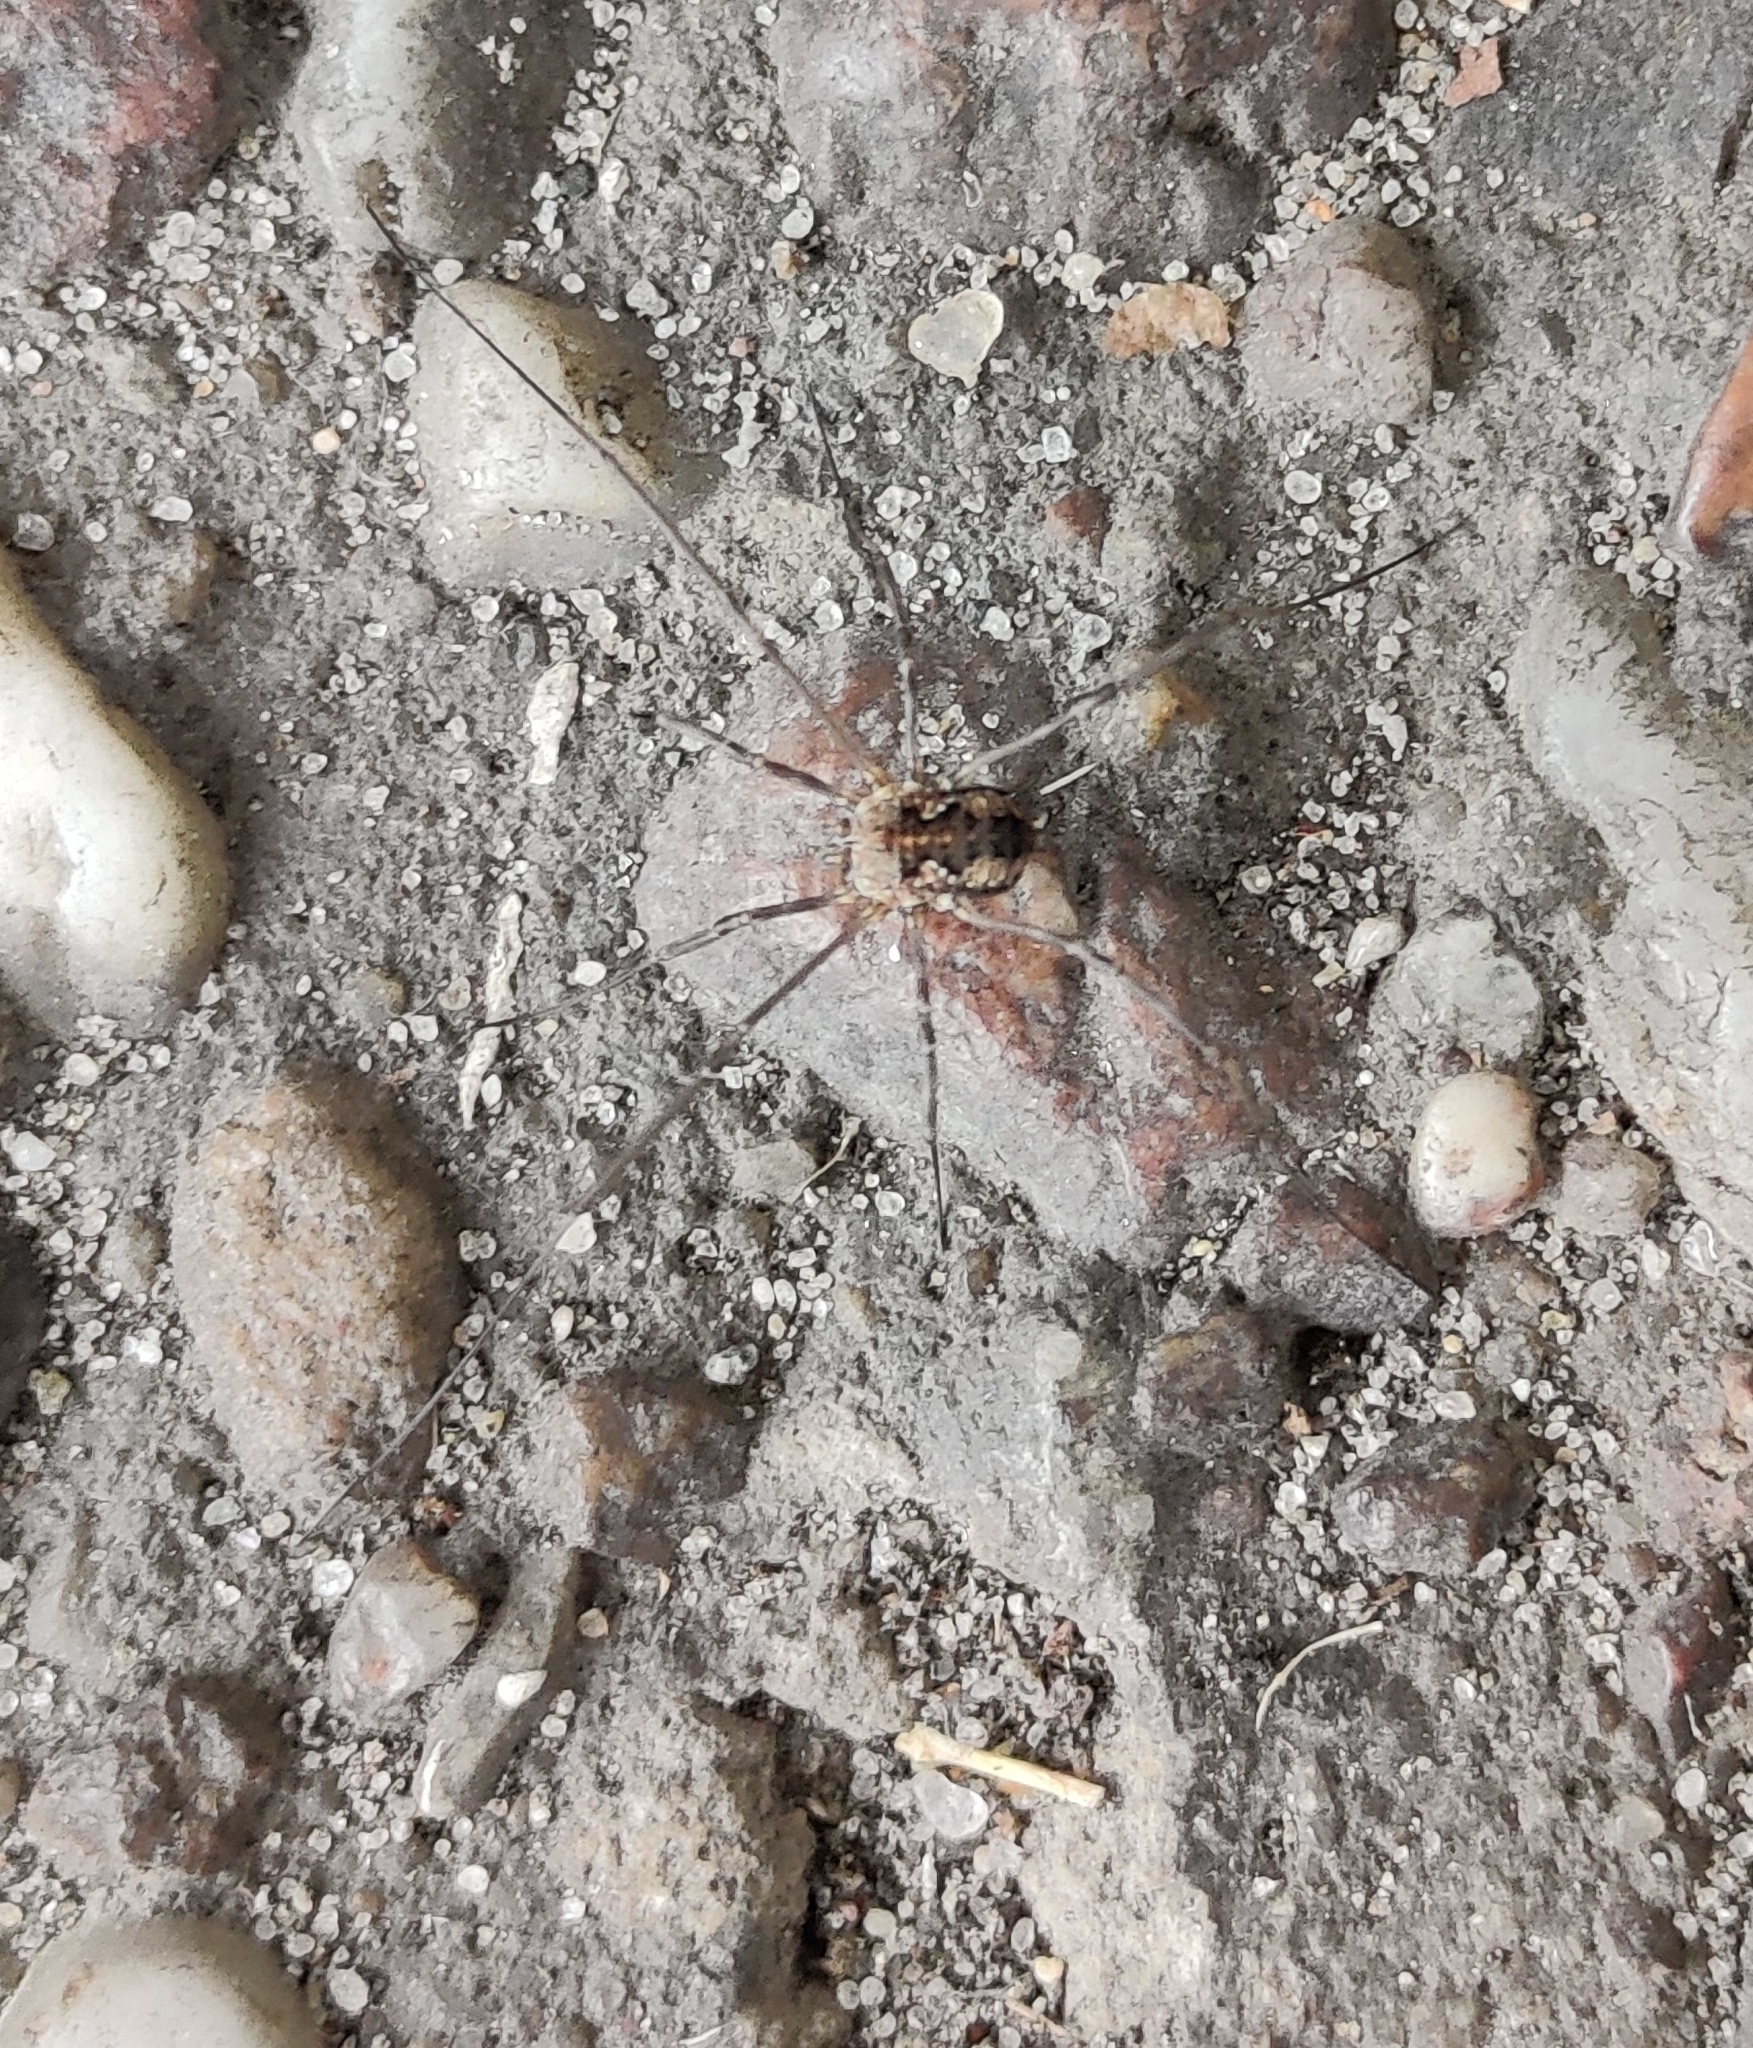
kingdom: Animalia
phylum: Arthropoda
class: Arachnida
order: Opiliones
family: Phalangiidae
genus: Phalangium
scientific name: Phalangium opilio
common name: Daddy longleg
